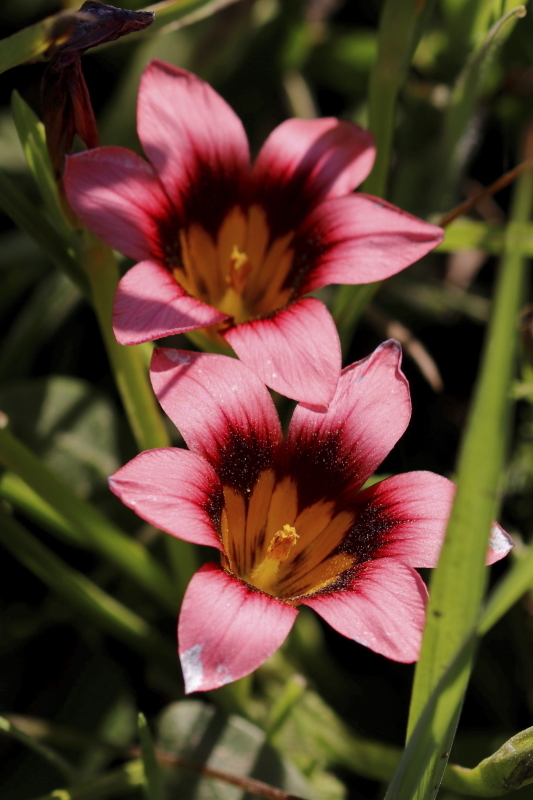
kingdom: Plantae
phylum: Tracheophyta
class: Liliopsida
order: Asparagales
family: Iridaceae
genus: Romulea
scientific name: Romulea hirsuta
